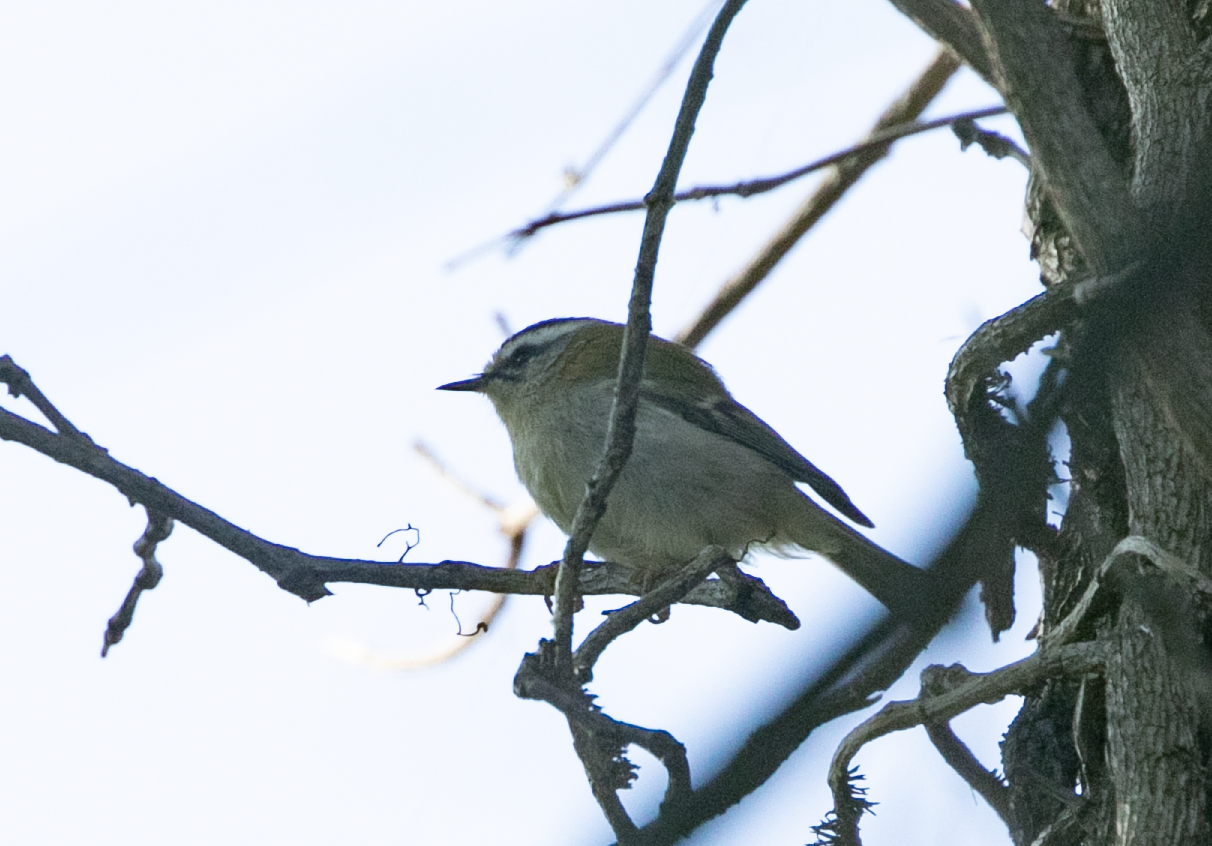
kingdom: Animalia
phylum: Chordata
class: Aves
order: Passeriformes
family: Regulidae
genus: Regulus
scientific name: Regulus ignicapilla
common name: Firecrest
